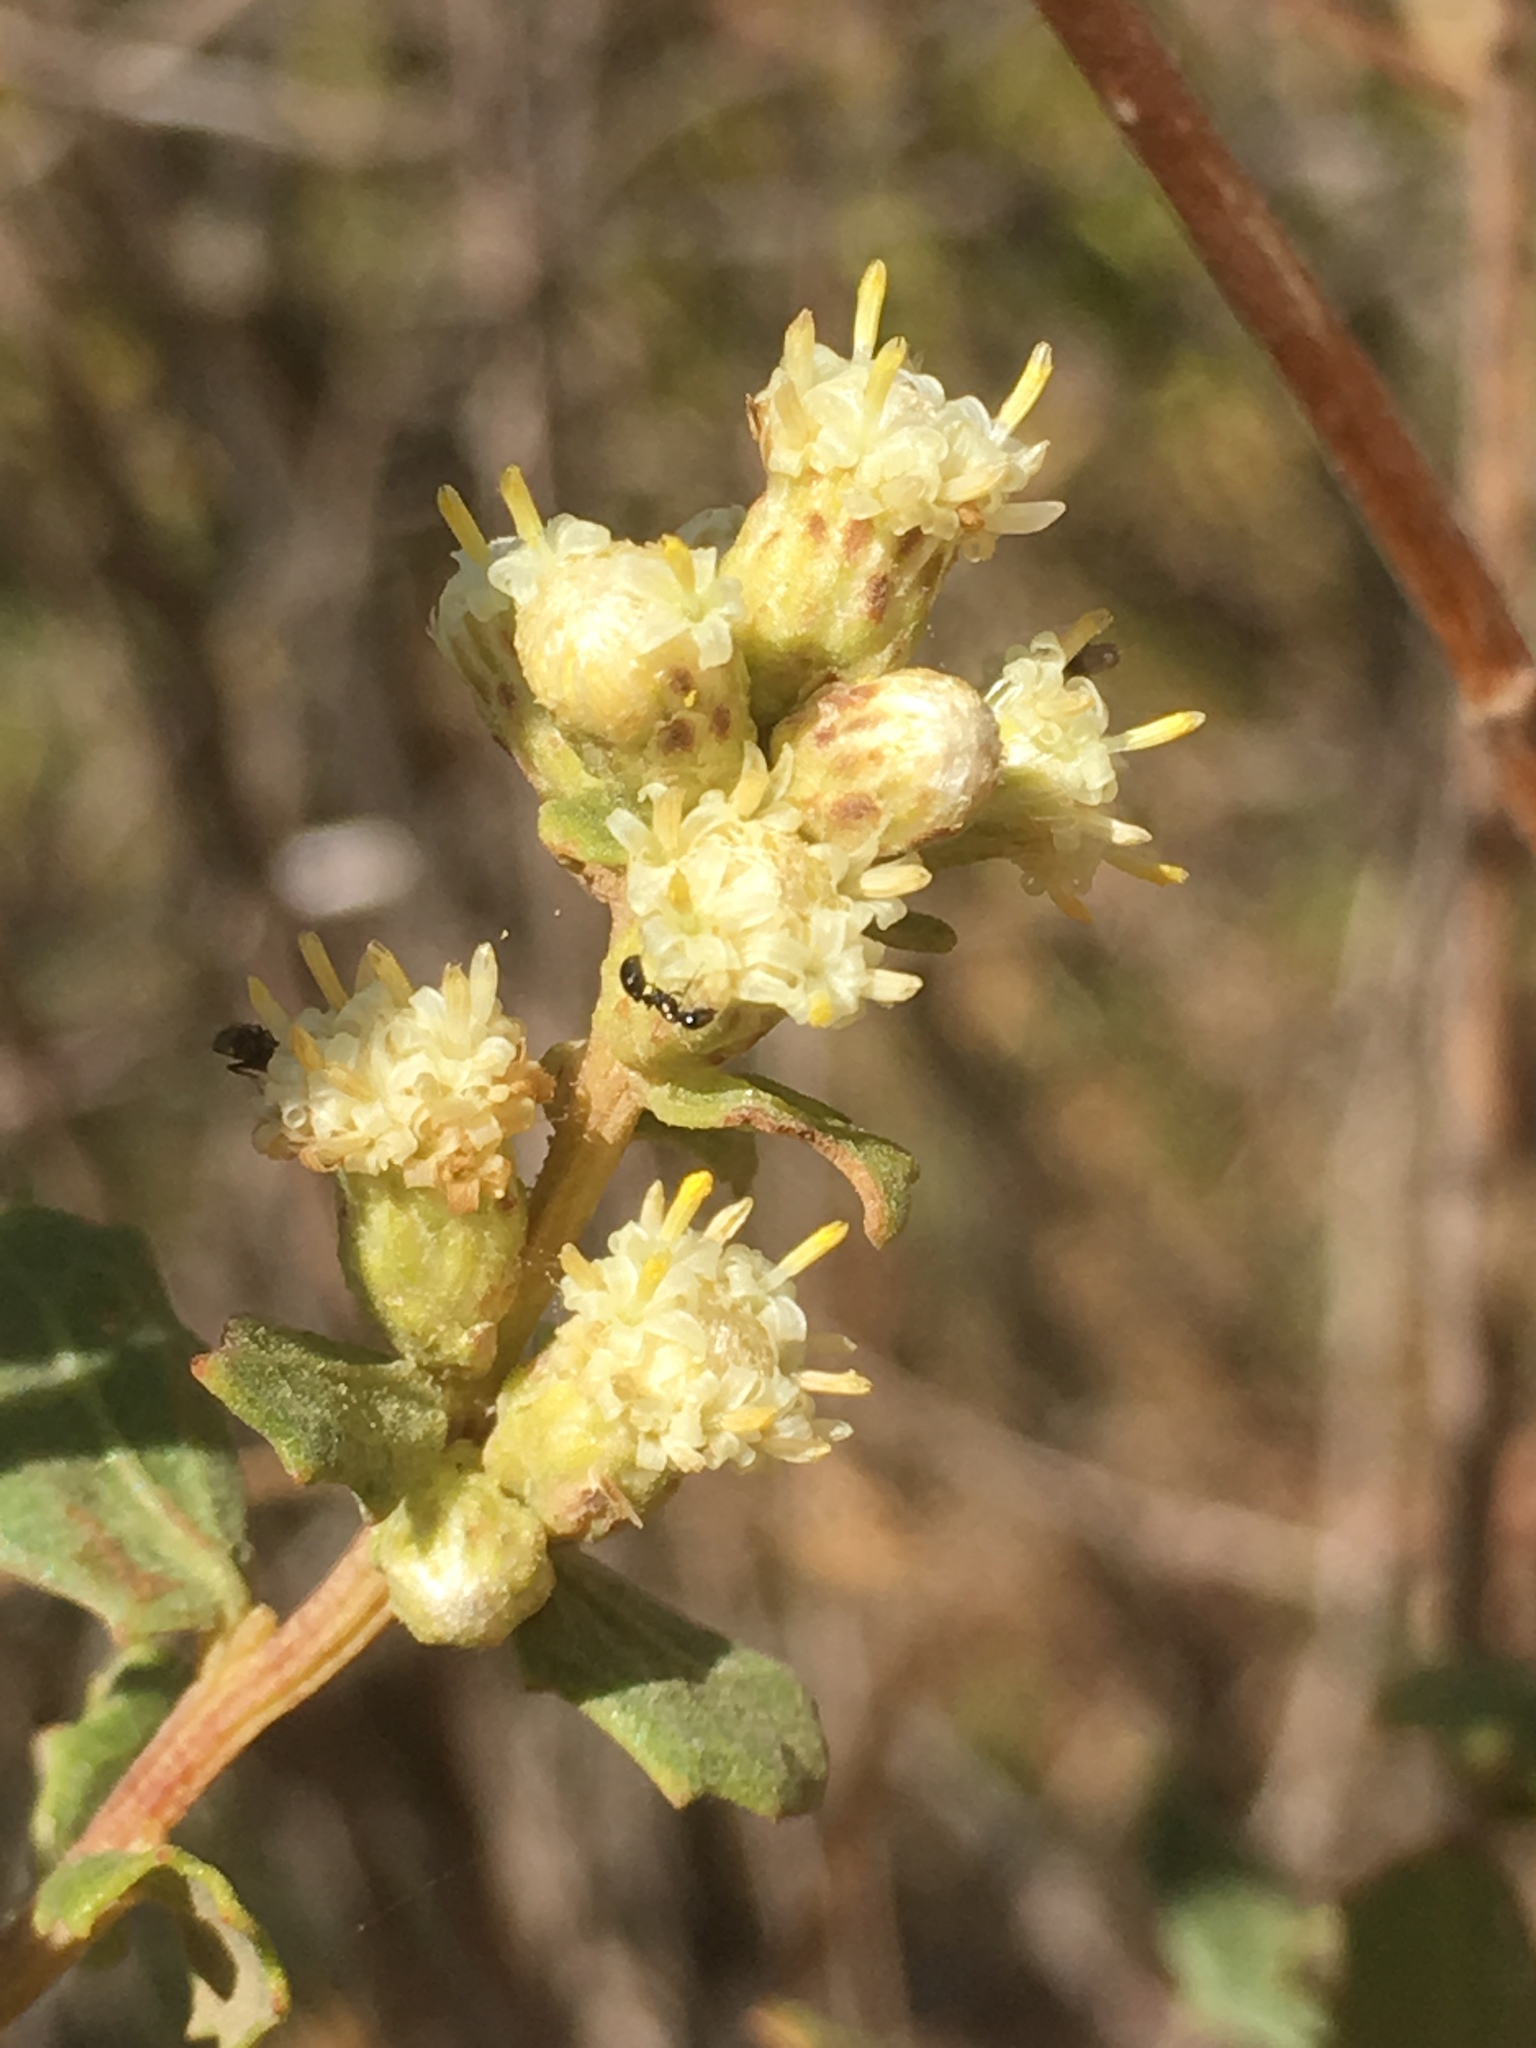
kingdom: Plantae
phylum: Tracheophyta
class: Magnoliopsida
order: Asterales
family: Asteraceae
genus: Baccharis
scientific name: Baccharis pilularis
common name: Coyotebrush
